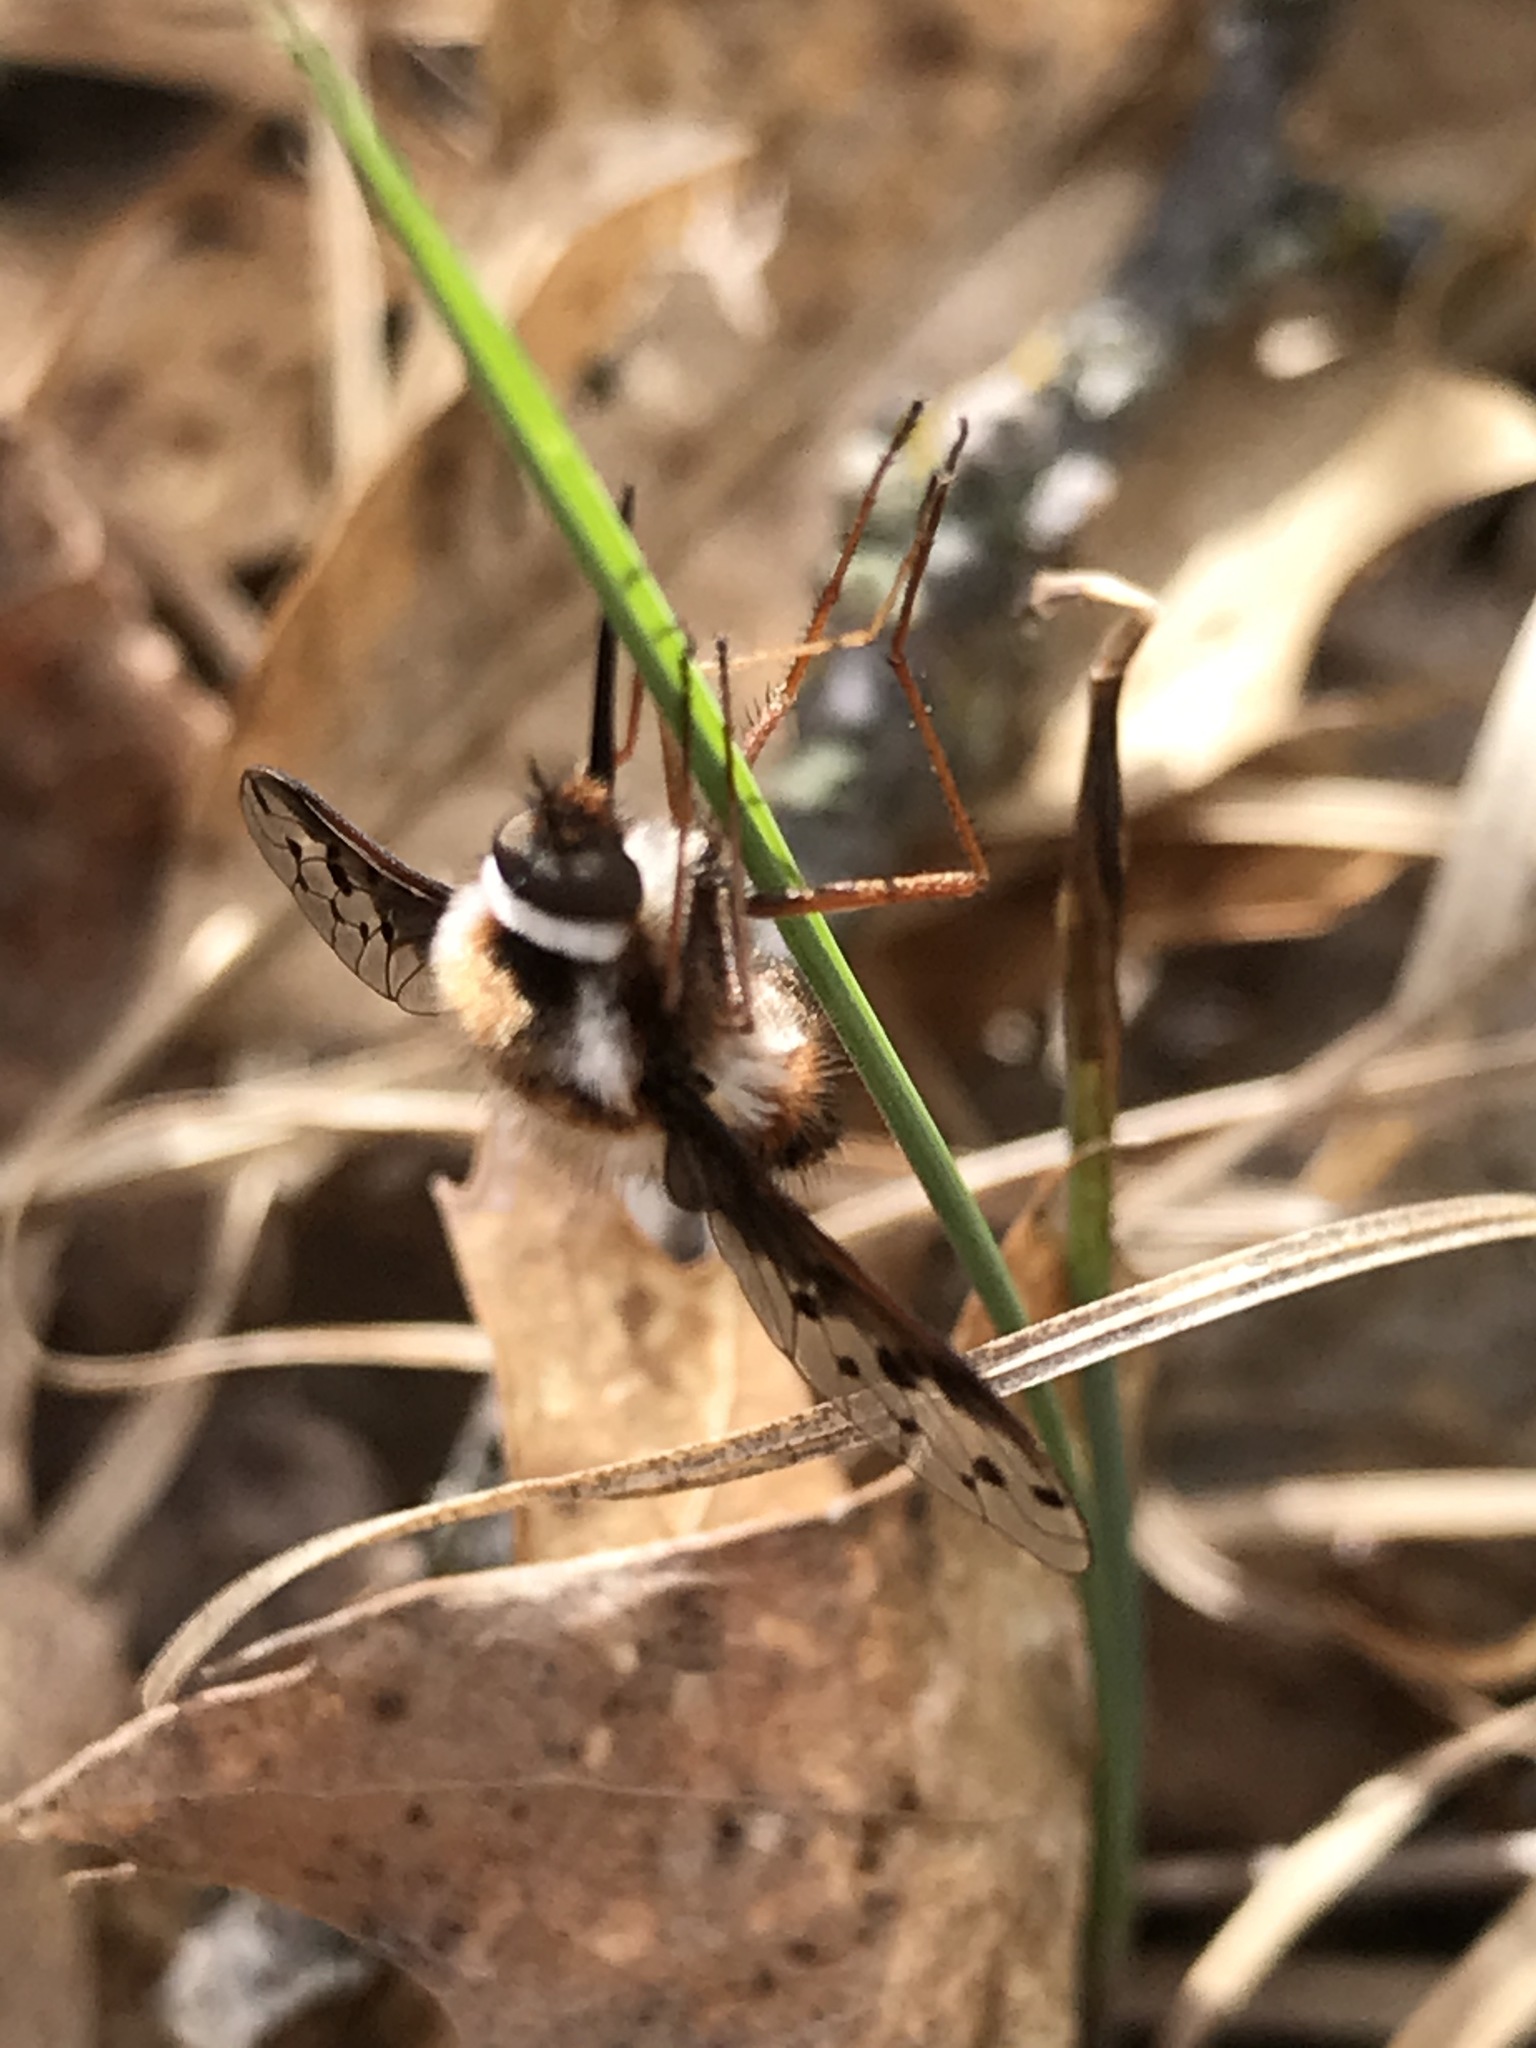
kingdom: Animalia
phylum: Arthropoda
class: Insecta
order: Diptera
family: Bombyliidae
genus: Bombylius
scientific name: Bombylius pygmaeus
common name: Pygmy bee fly
